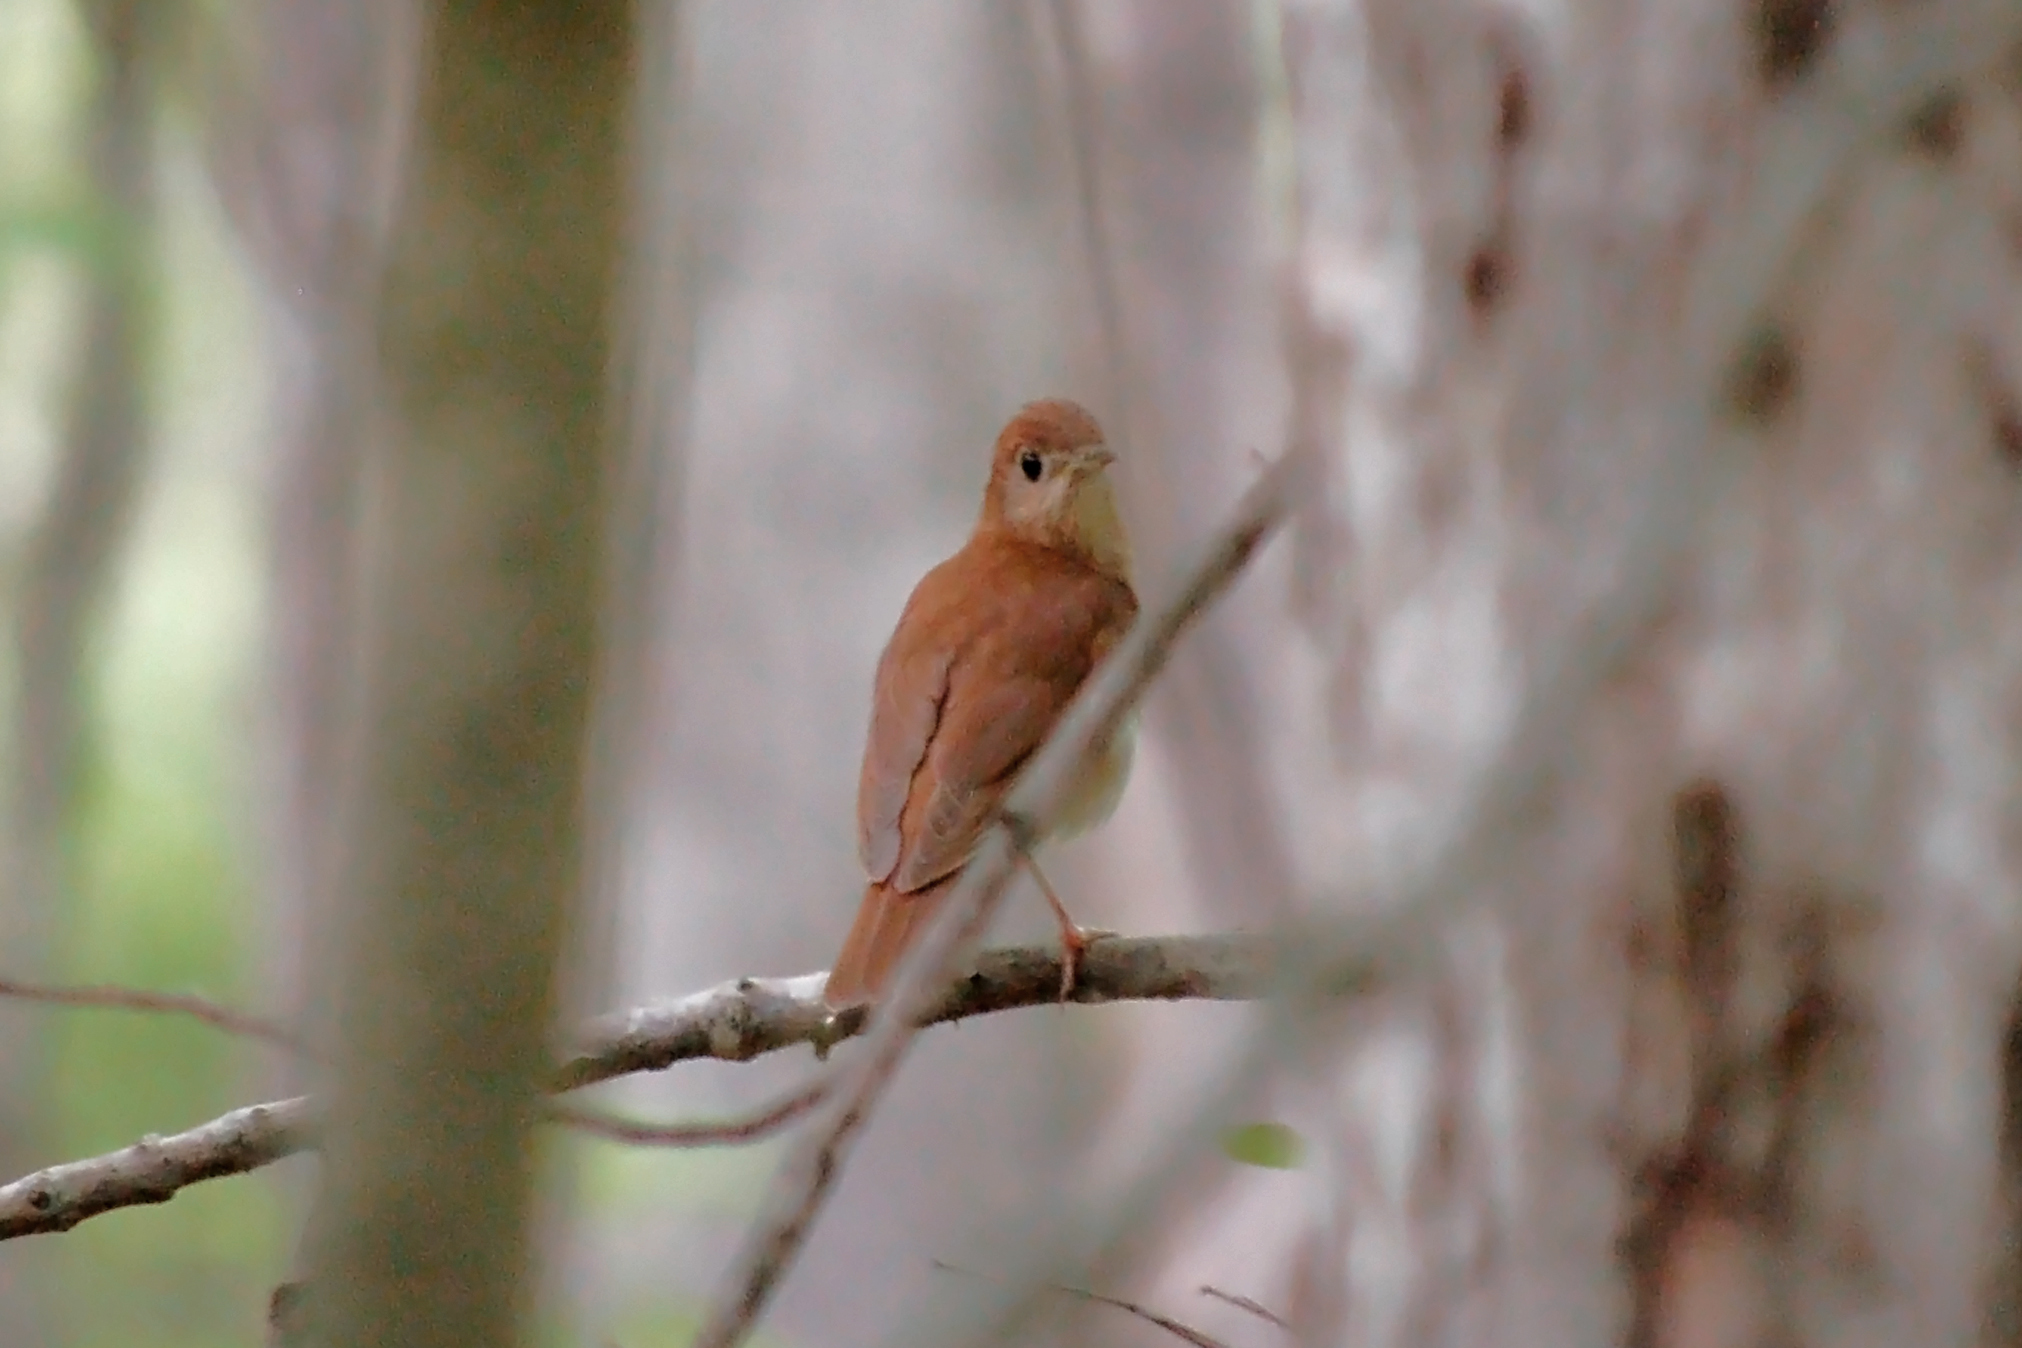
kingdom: Animalia
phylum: Chordata
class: Aves
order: Passeriformes
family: Turdidae
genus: Catharus
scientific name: Catharus fuscescens
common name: Veery
